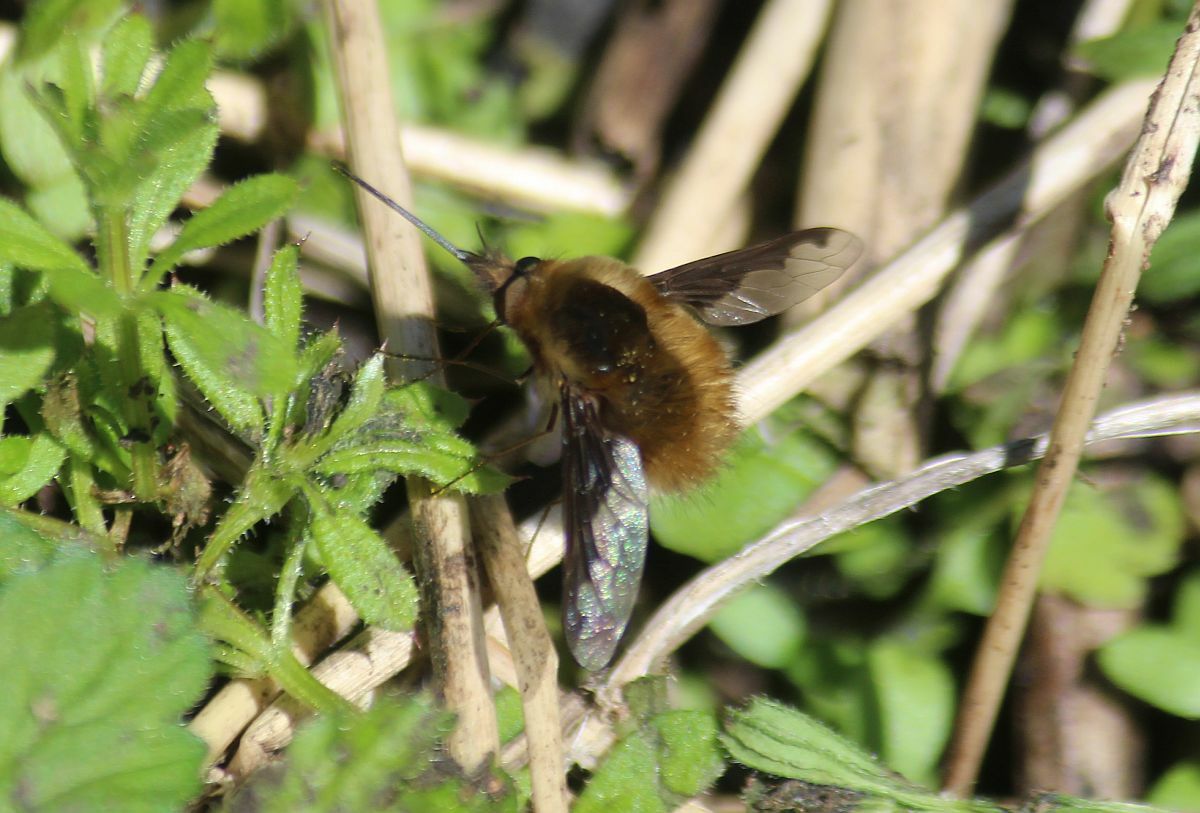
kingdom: Animalia
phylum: Arthropoda
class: Insecta
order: Diptera
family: Bombyliidae
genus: Bombylius
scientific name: Bombylius major
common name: Bee fly
